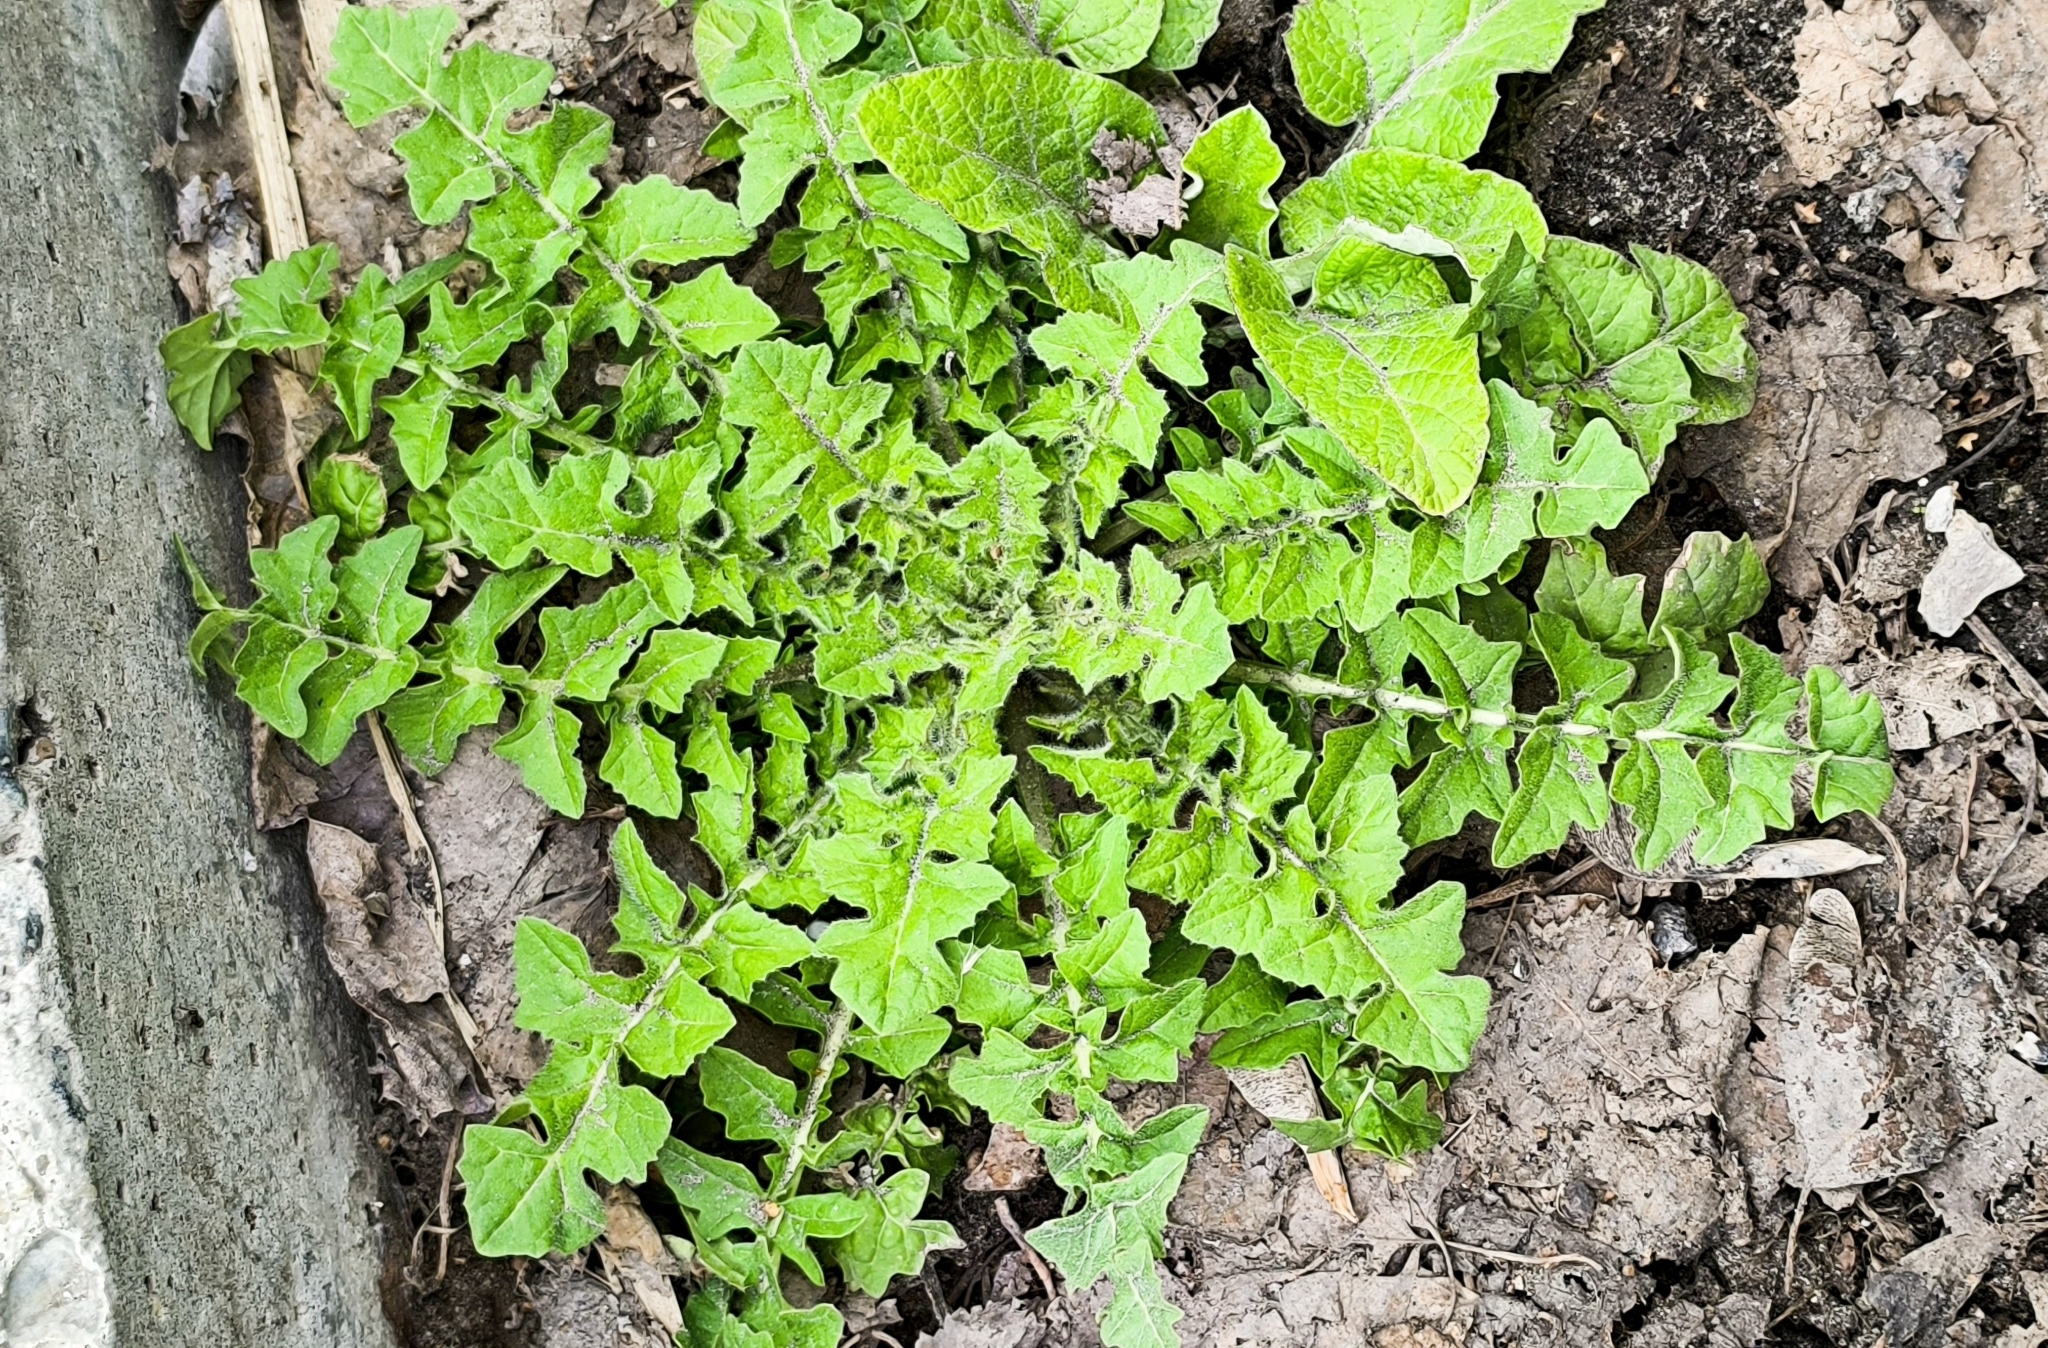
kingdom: Plantae
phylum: Tracheophyta
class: Magnoliopsida
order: Brassicales
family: Brassicaceae
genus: Sisymbrium
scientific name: Sisymbrium loeselii
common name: False london-rocket
